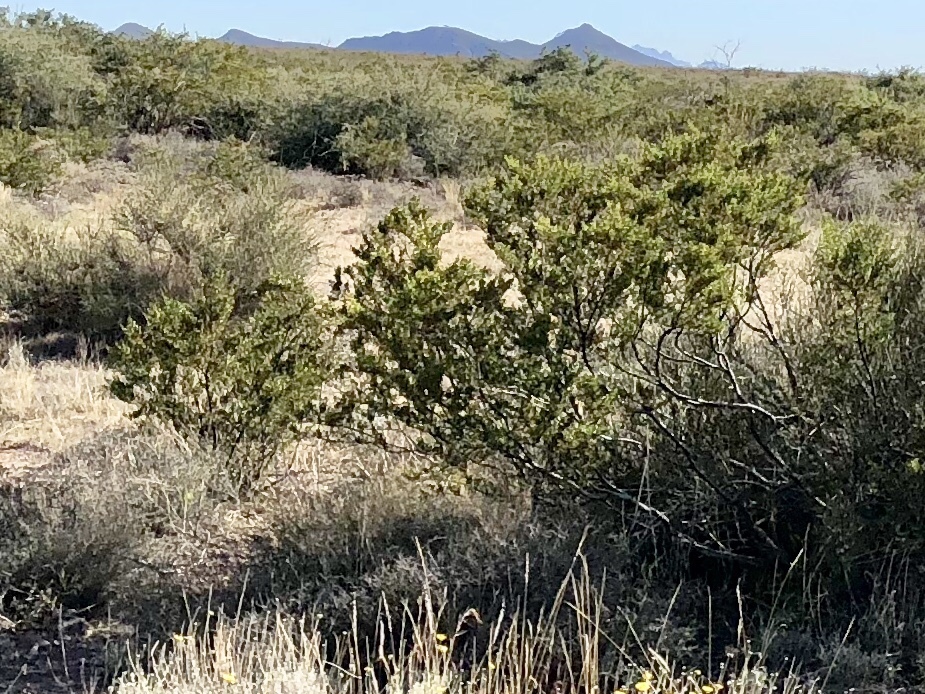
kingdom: Plantae
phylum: Tracheophyta
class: Magnoliopsida
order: Zygophyllales
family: Zygophyllaceae
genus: Larrea
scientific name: Larrea tridentata
